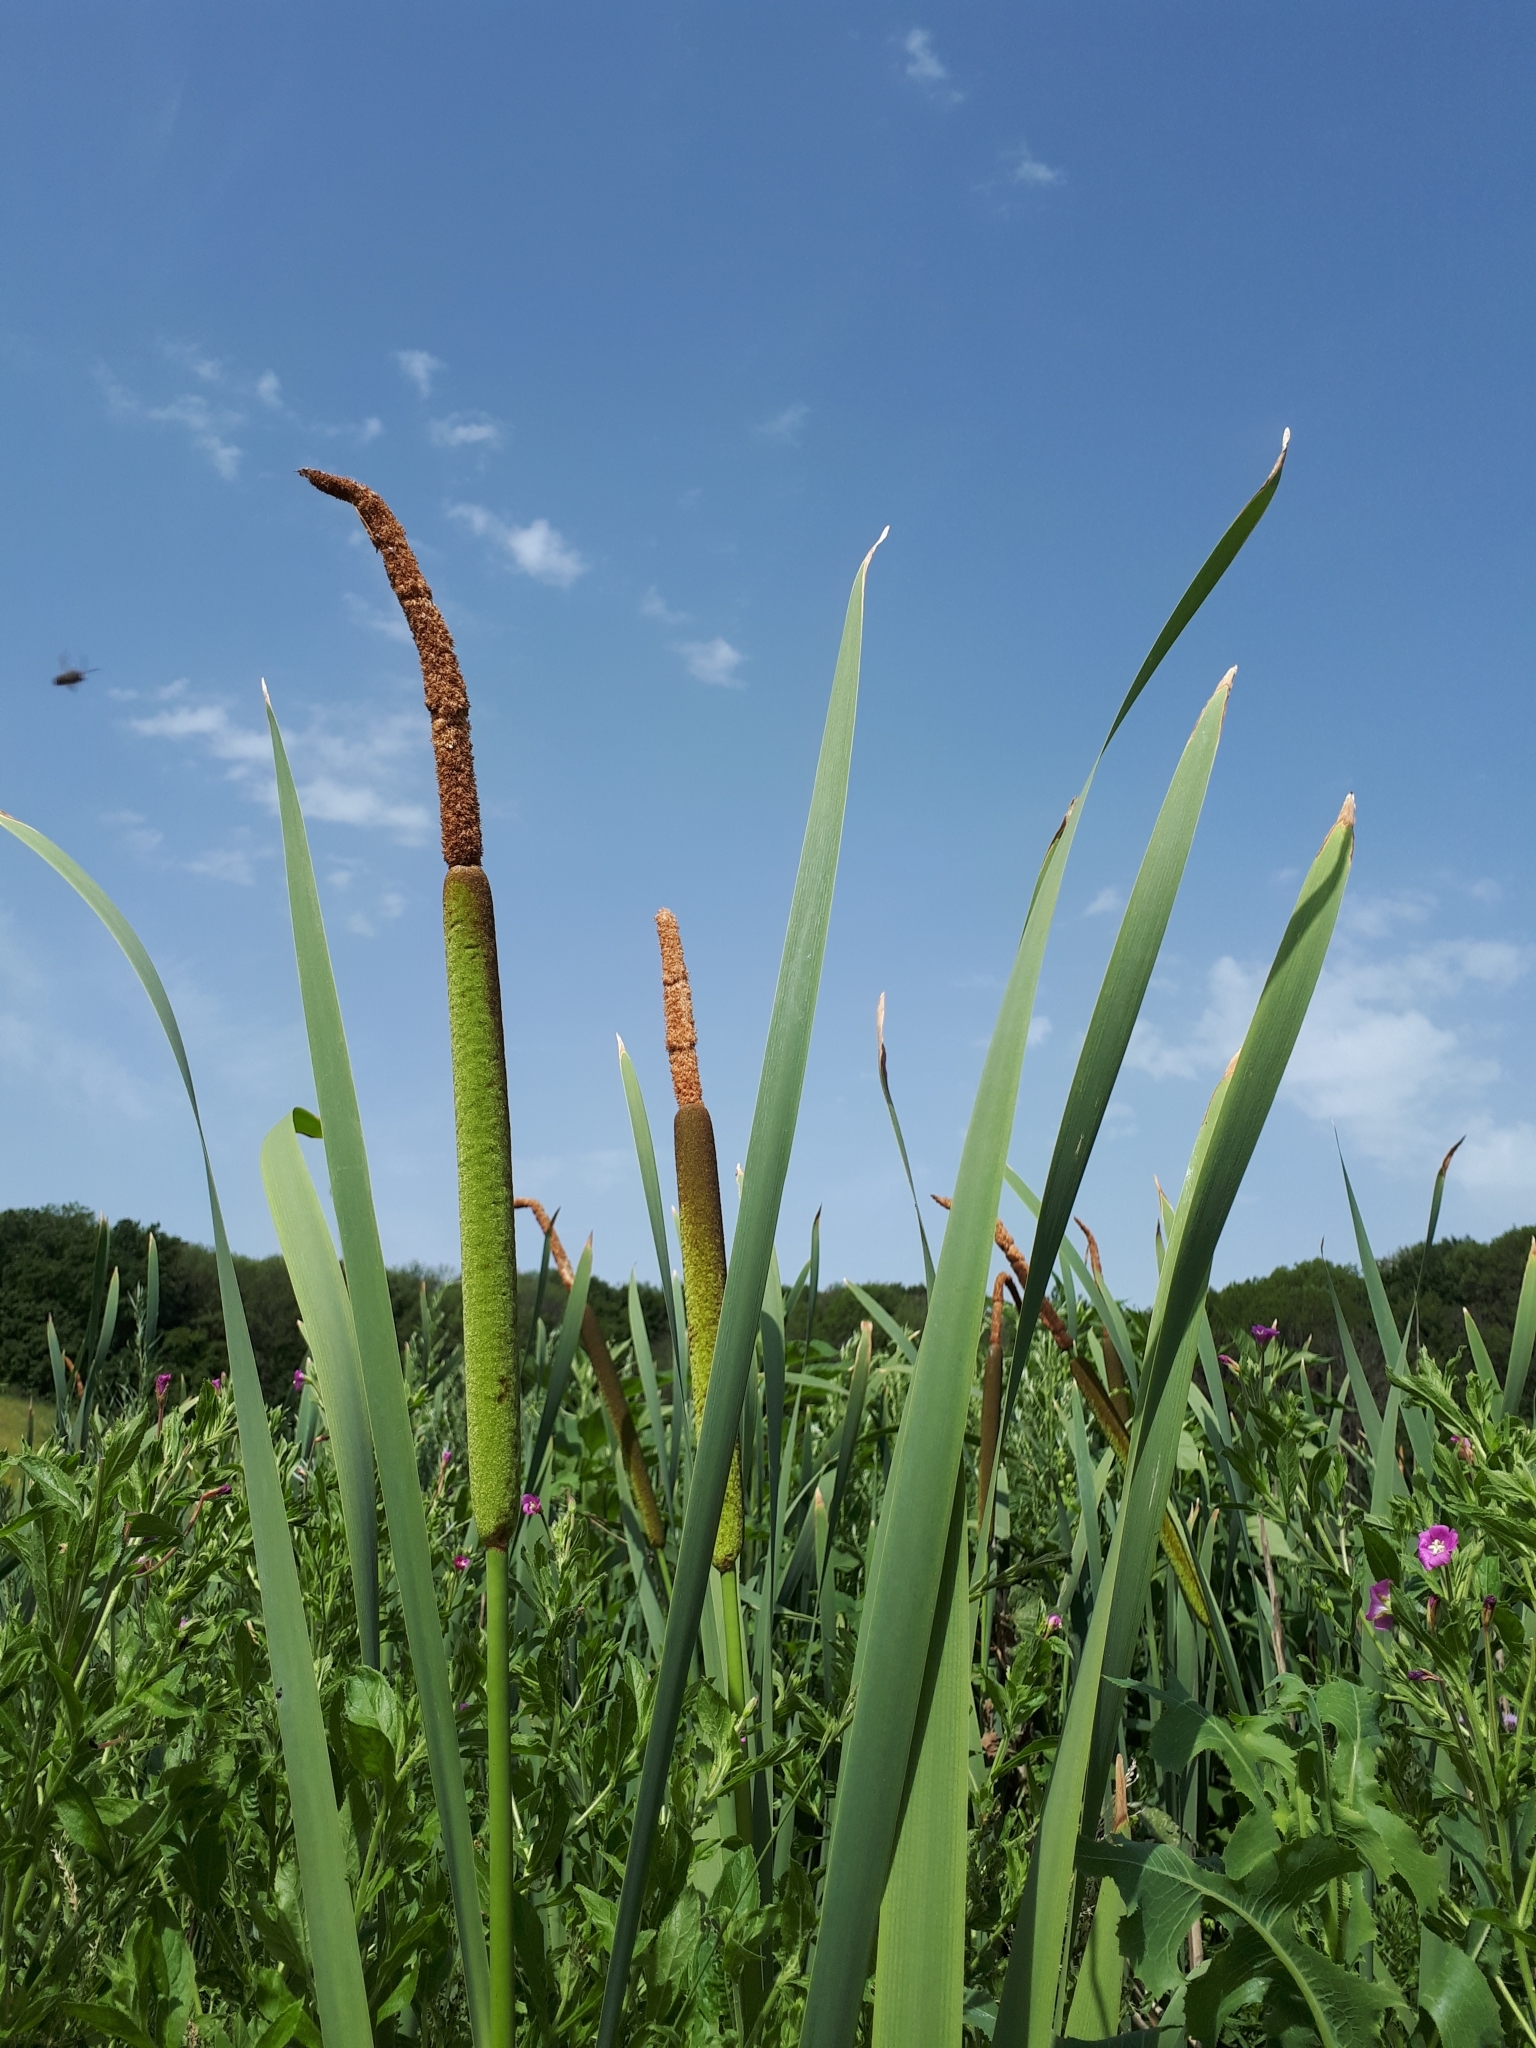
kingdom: Plantae
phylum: Tracheophyta
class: Liliopsida
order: Poales
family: Typhaceae
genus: Typha
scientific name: Typha latifolia
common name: Broadleaf cattail
